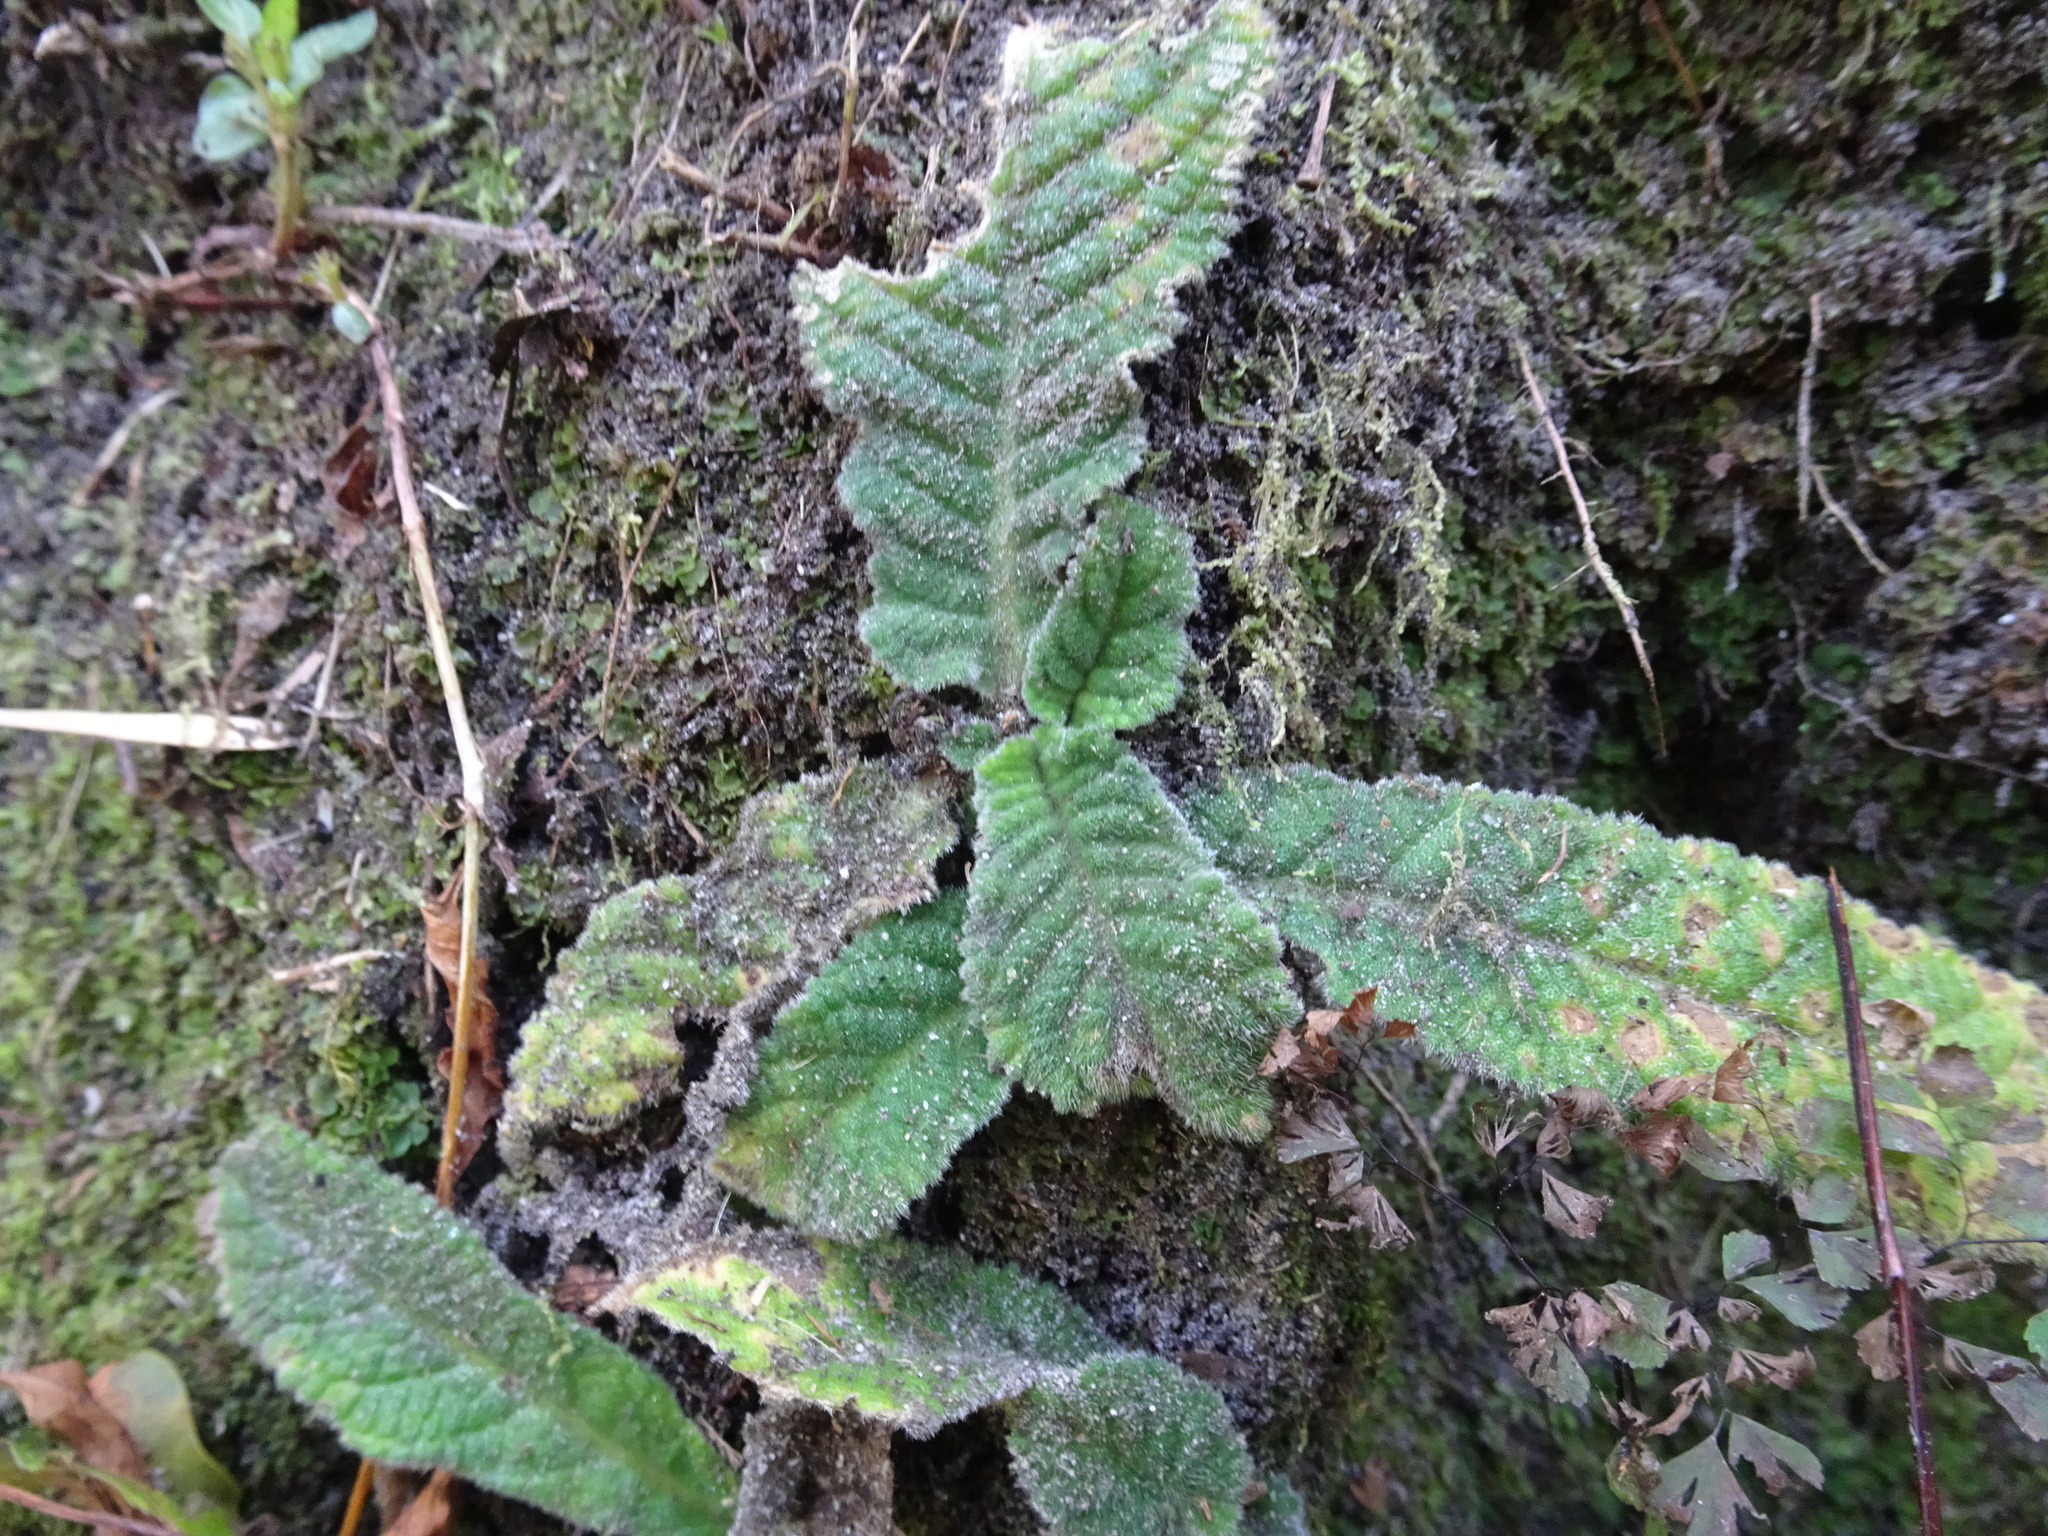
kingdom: Plantae
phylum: Tracheophyta
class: Magnoliopsida
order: Lamiales
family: Gesneriaceae
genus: Streptocarpus
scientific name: Streptocarpus rexii
